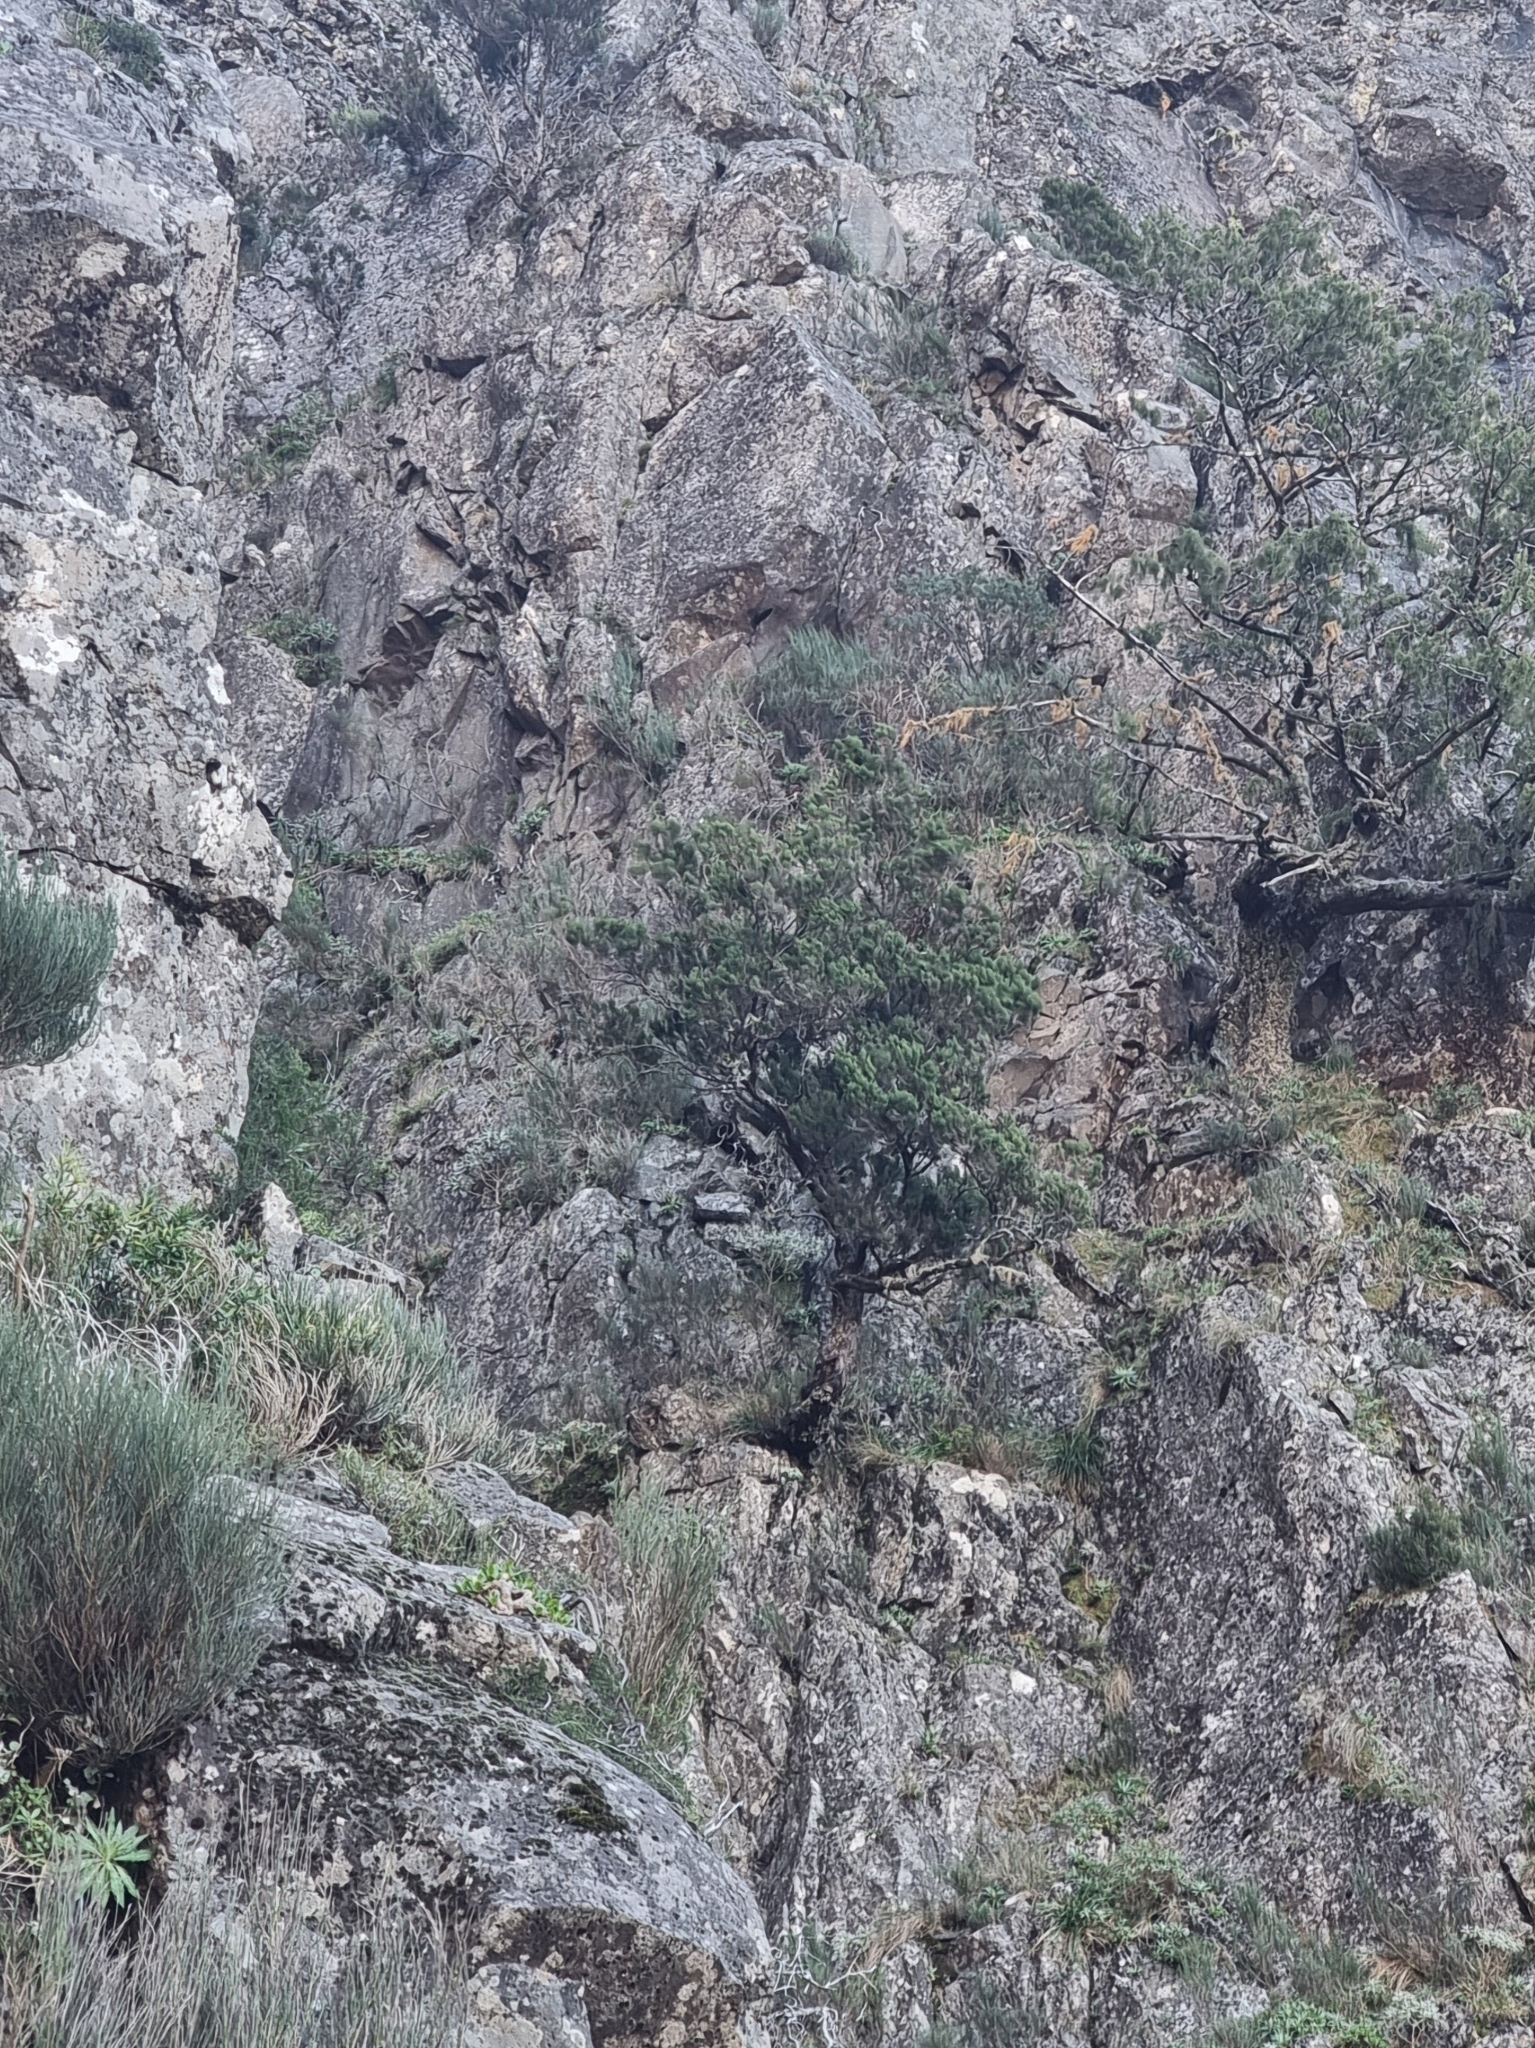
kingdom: Plantae
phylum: Tracheophyta
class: Magnoliopsida
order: Ericales
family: Ericaceae
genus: Erica
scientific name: Erica canariensis
